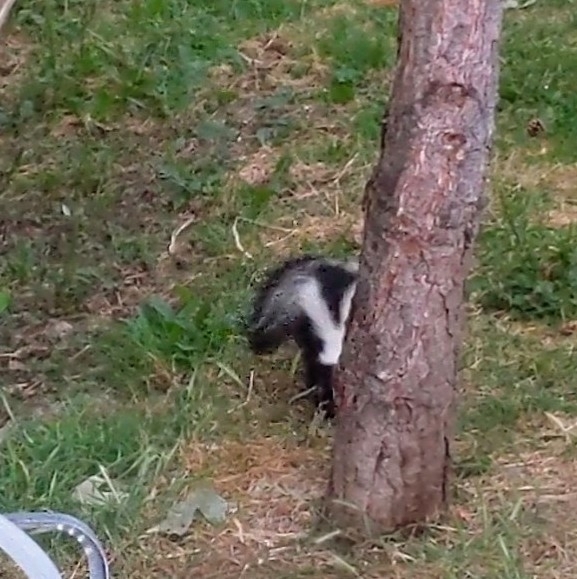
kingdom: Animalia
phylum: Chordata
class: Mammalia
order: Carnivora
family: Mephitidae
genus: Mephitis
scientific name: Mephitis mephitis
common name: Striped skunk
